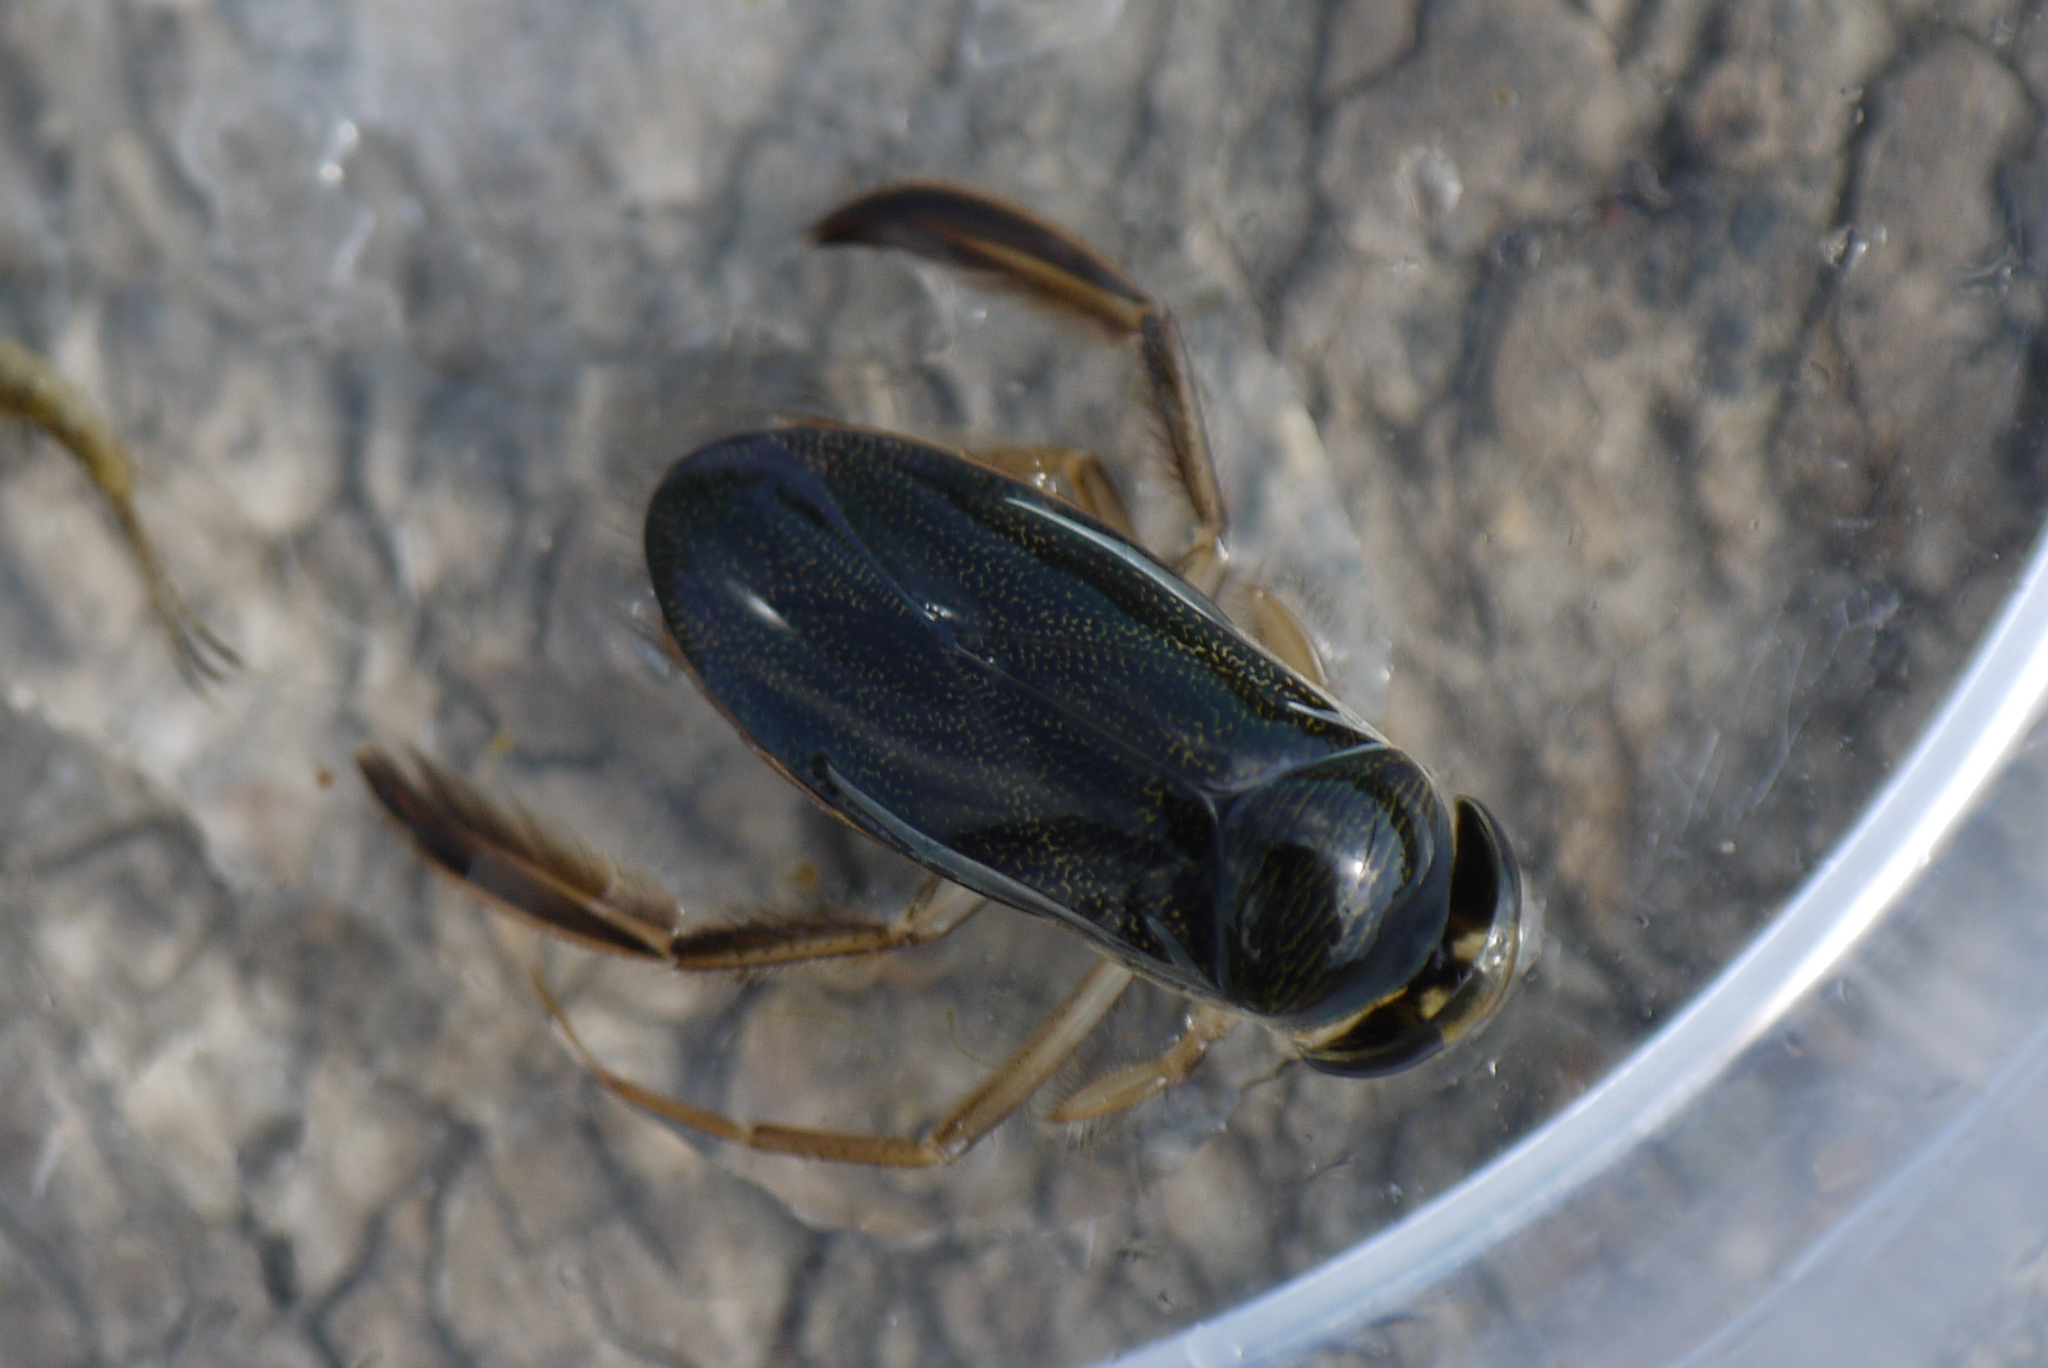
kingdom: Animalia
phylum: Arthropoda
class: Insecta
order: Hemiptera
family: Corixidae
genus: Corixa
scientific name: Corixa punctata
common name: Punctate corixa
